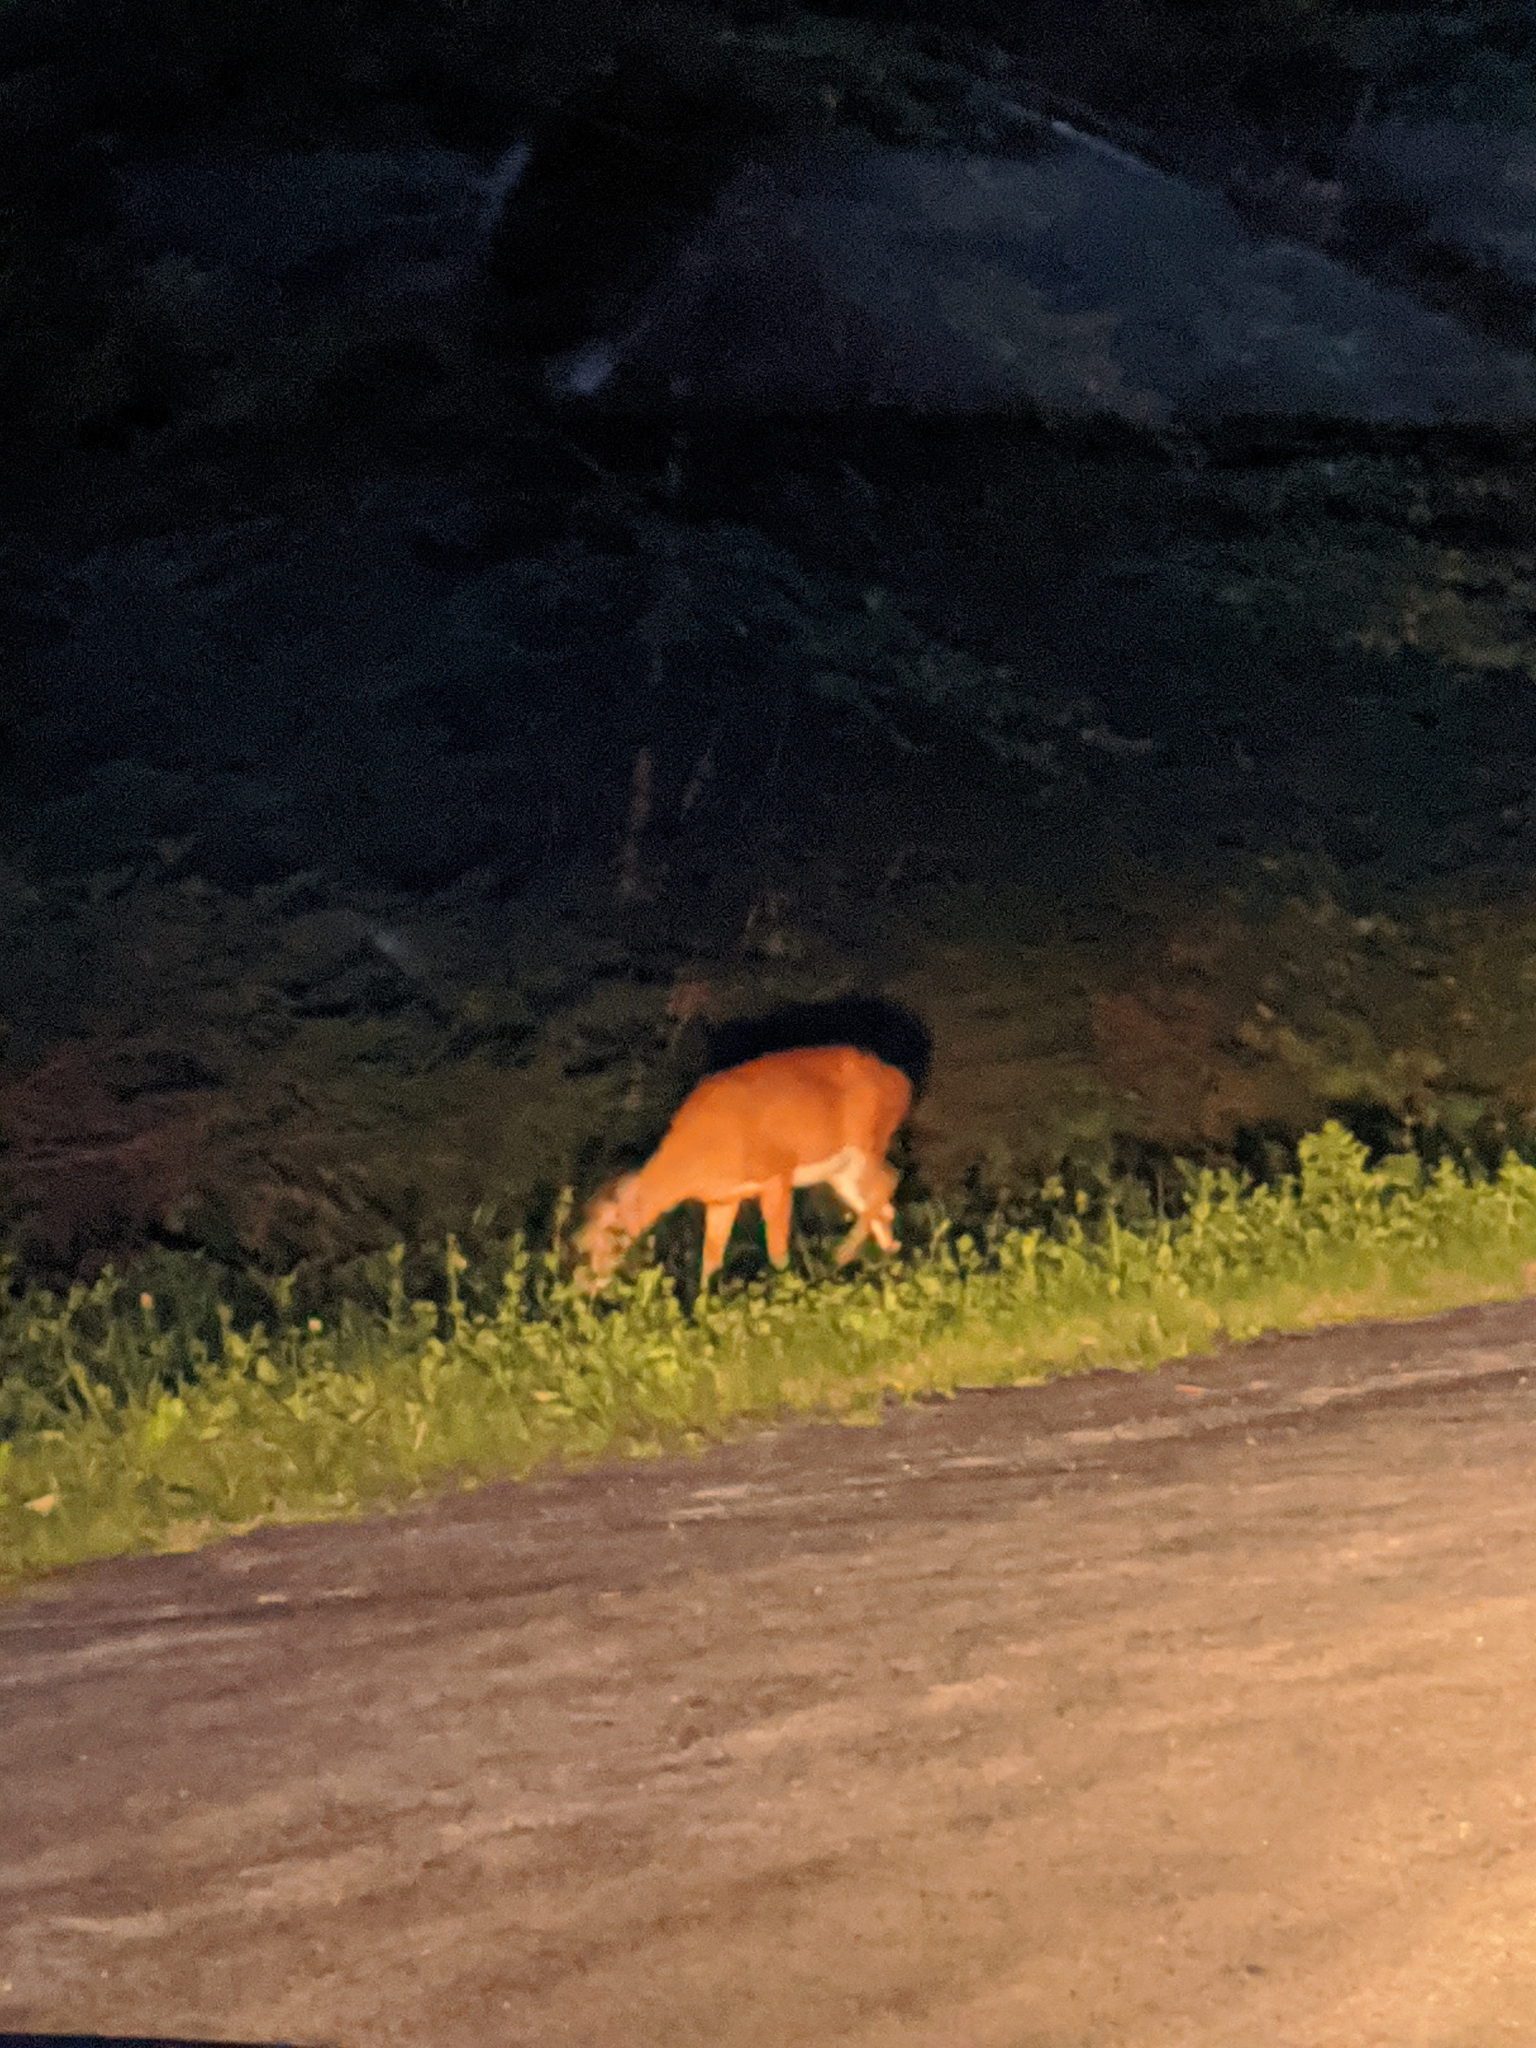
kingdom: Animalia
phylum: Chordata
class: Mammalia
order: Artiodactyla
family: Cervidae
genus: Odocoileus
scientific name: Odocoileus virginianus
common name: White-tailed deer
